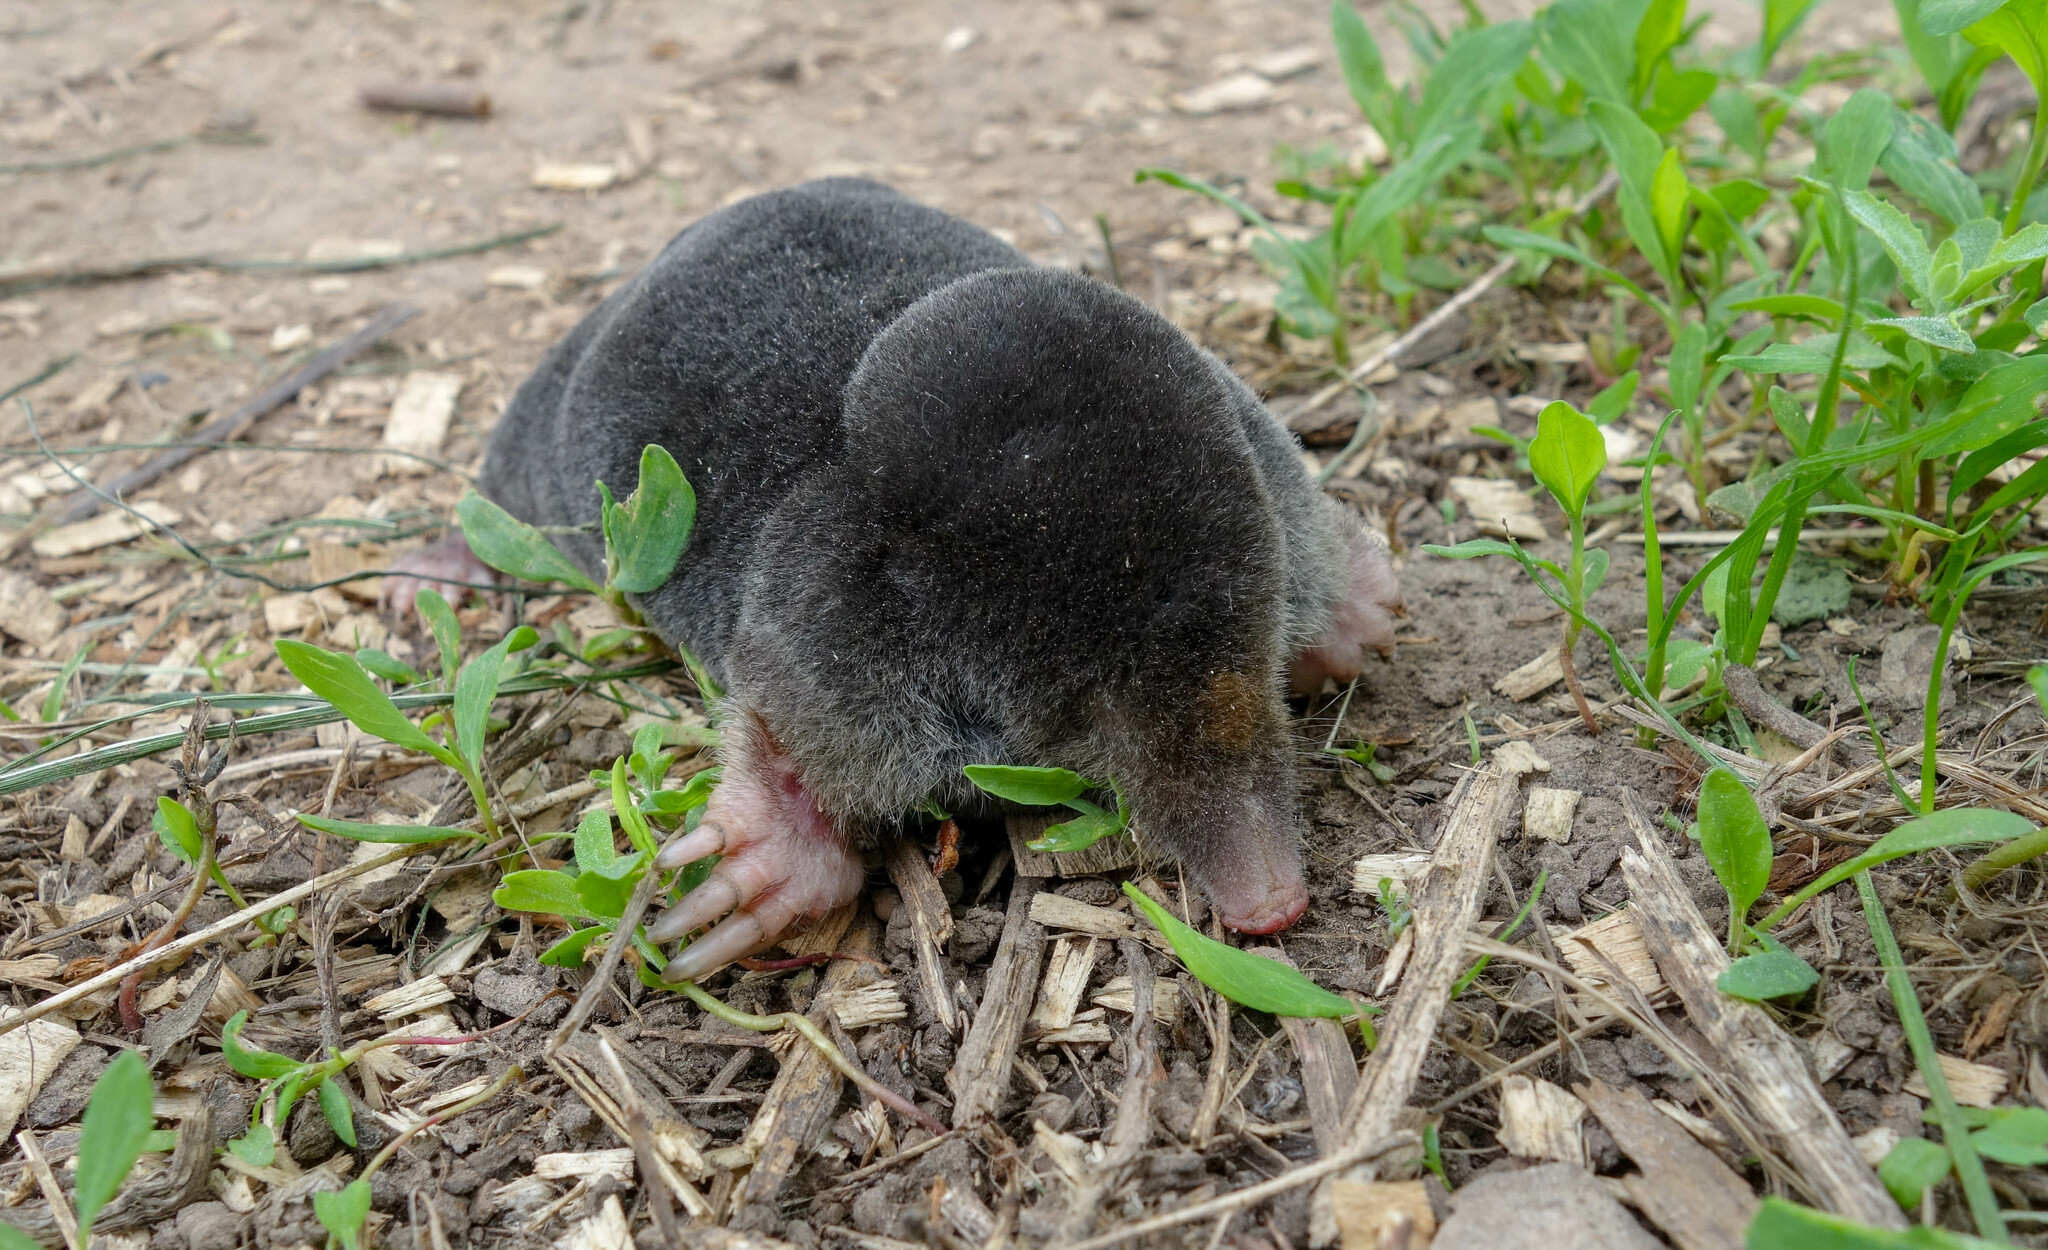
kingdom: Animalia
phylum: Chordata
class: Mammalia
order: Soricomorpha
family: Talpidae
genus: Talpa
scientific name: Talpa europaea
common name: European mole
